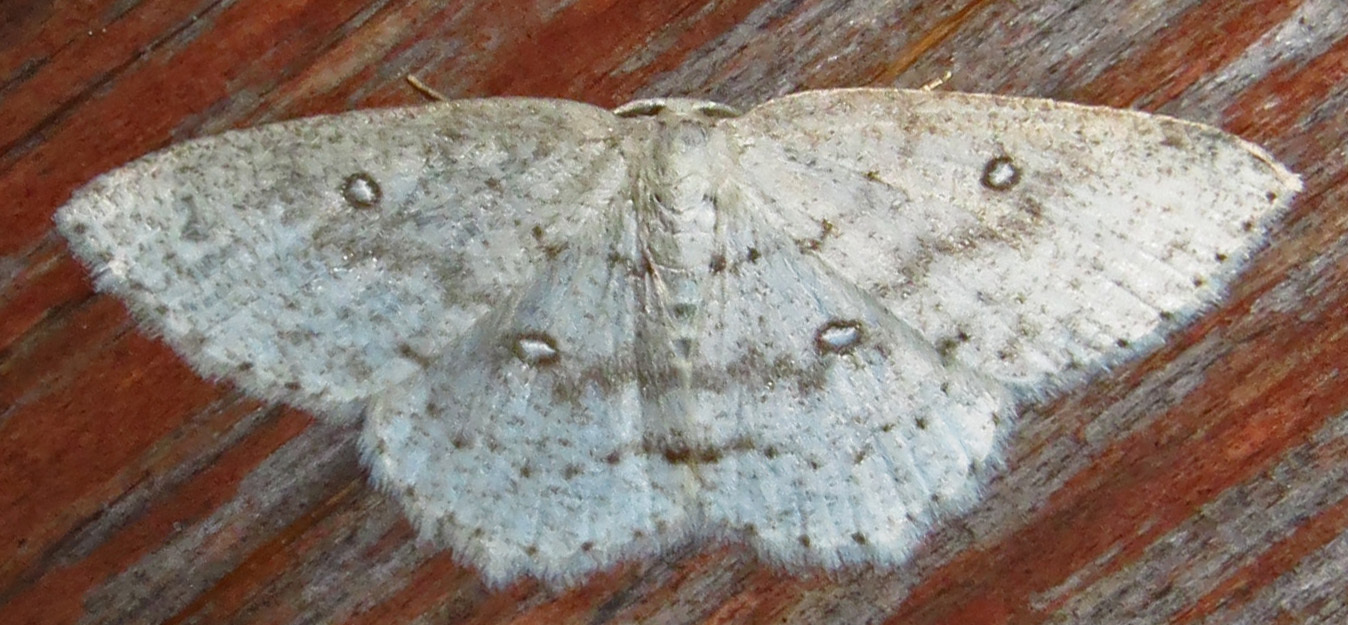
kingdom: Animalia
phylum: Arthropoda
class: Insecta
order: Lepidoptera
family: Geometridae
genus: Cyclophora
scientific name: Cyclophora pendulinaria
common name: Sweet fern geometer
